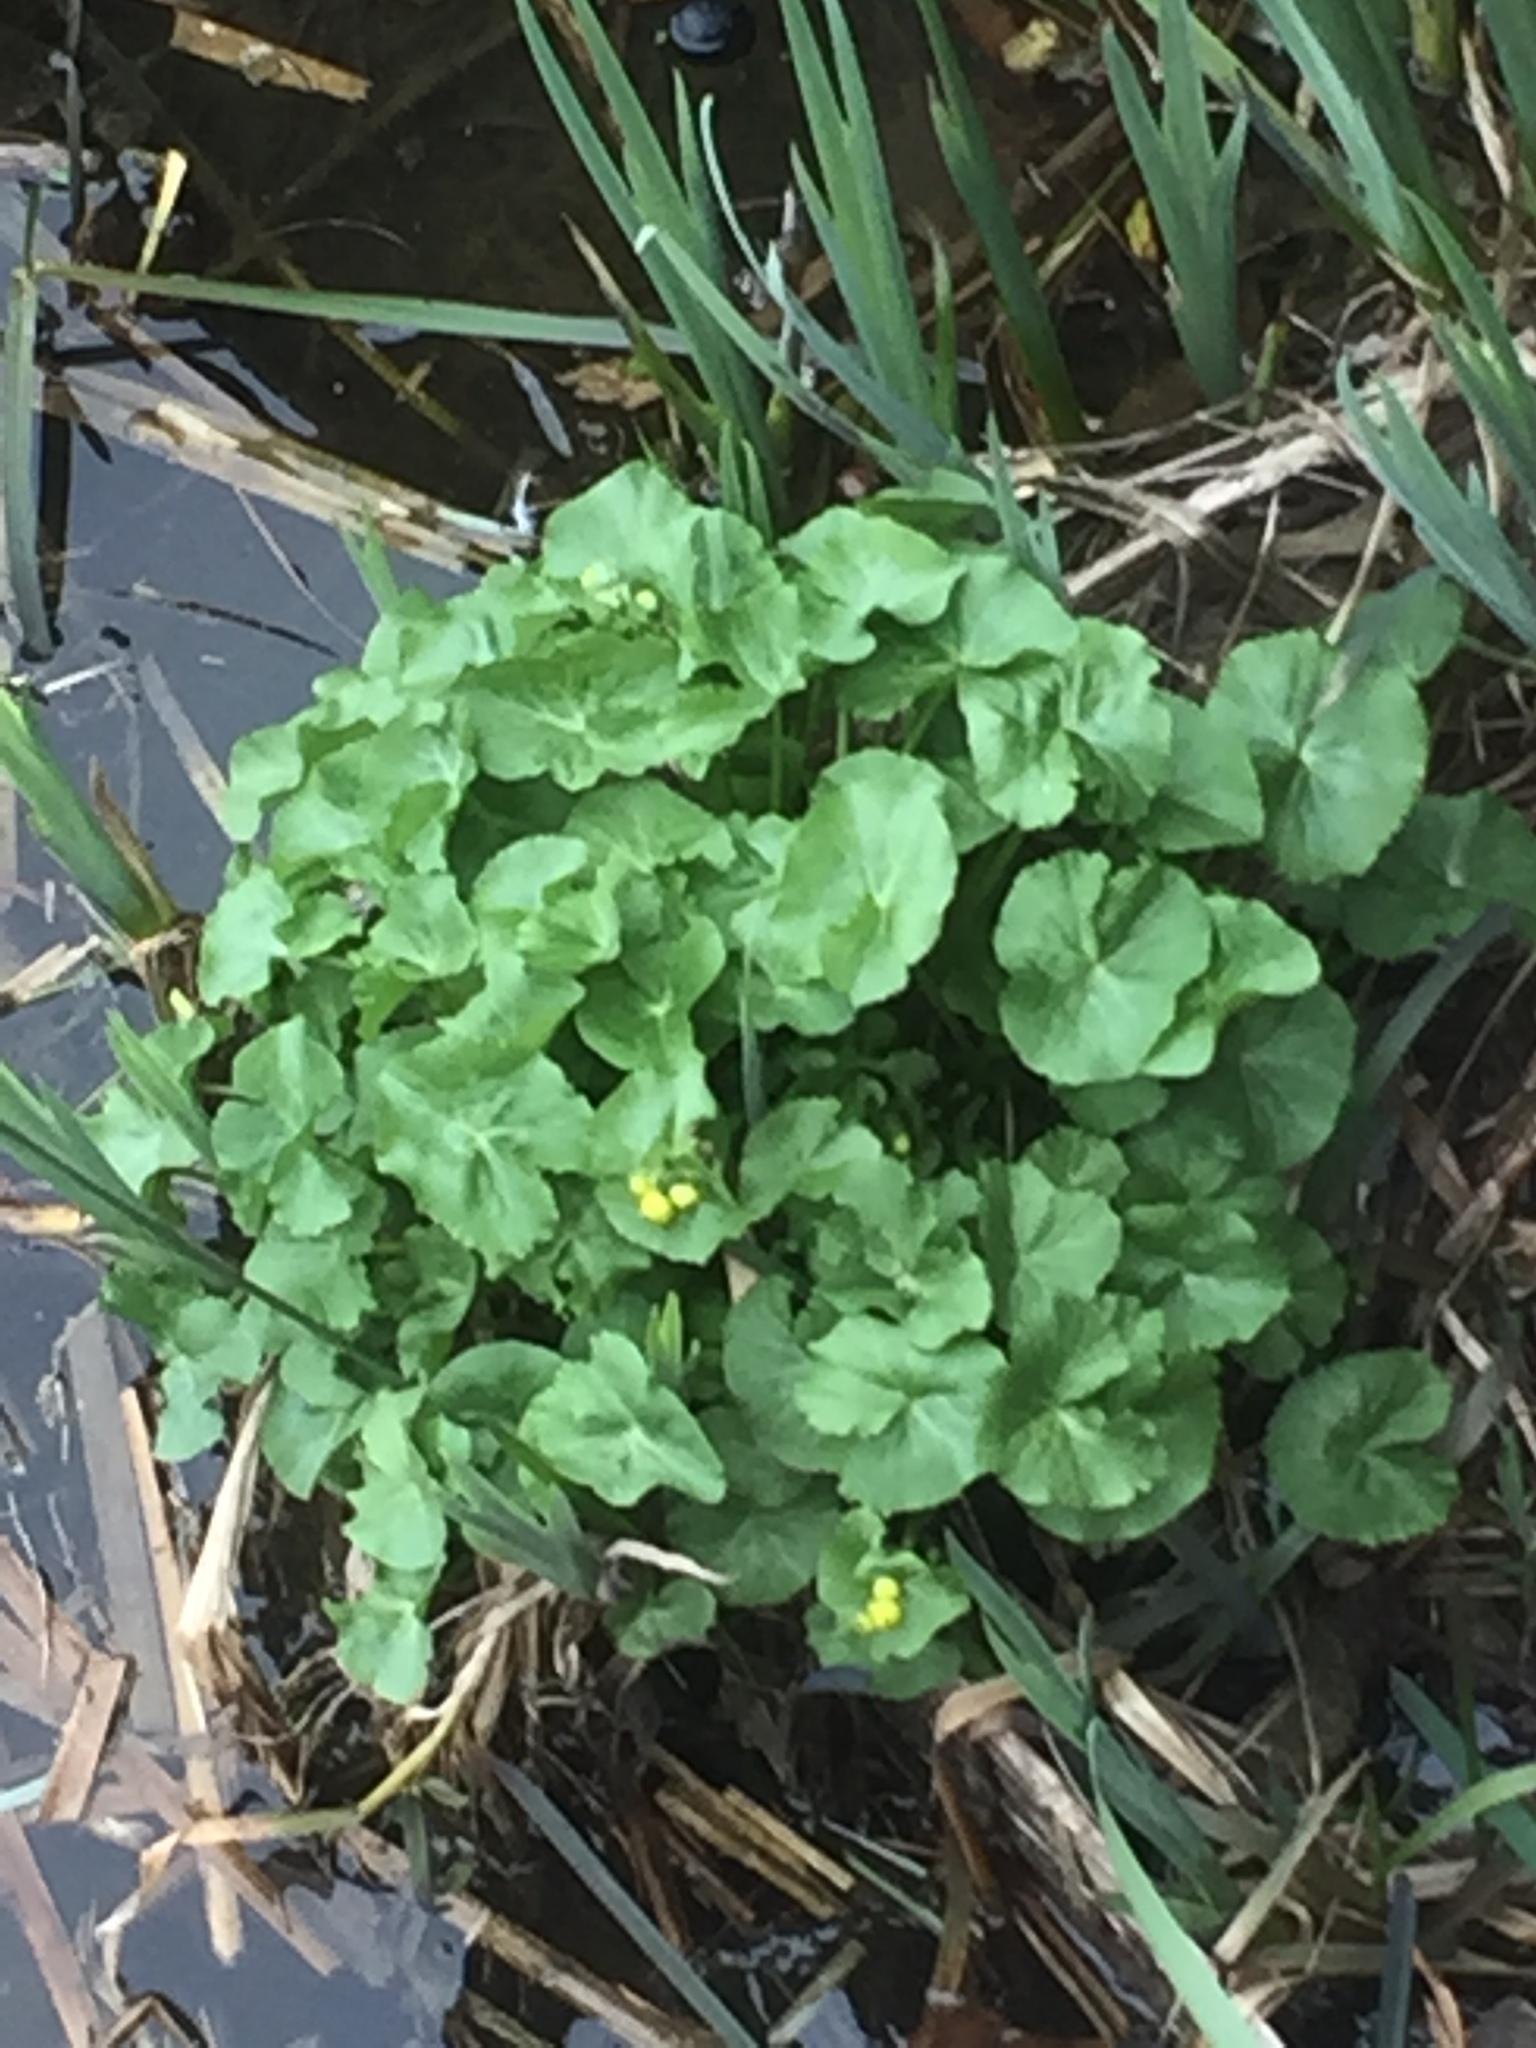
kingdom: Plantae
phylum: Tracheophyta
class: Magnoliopsida
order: Ranunculales
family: Ranunculaceae
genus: Caltha
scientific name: Caltha palustris
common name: Marsh marigold
